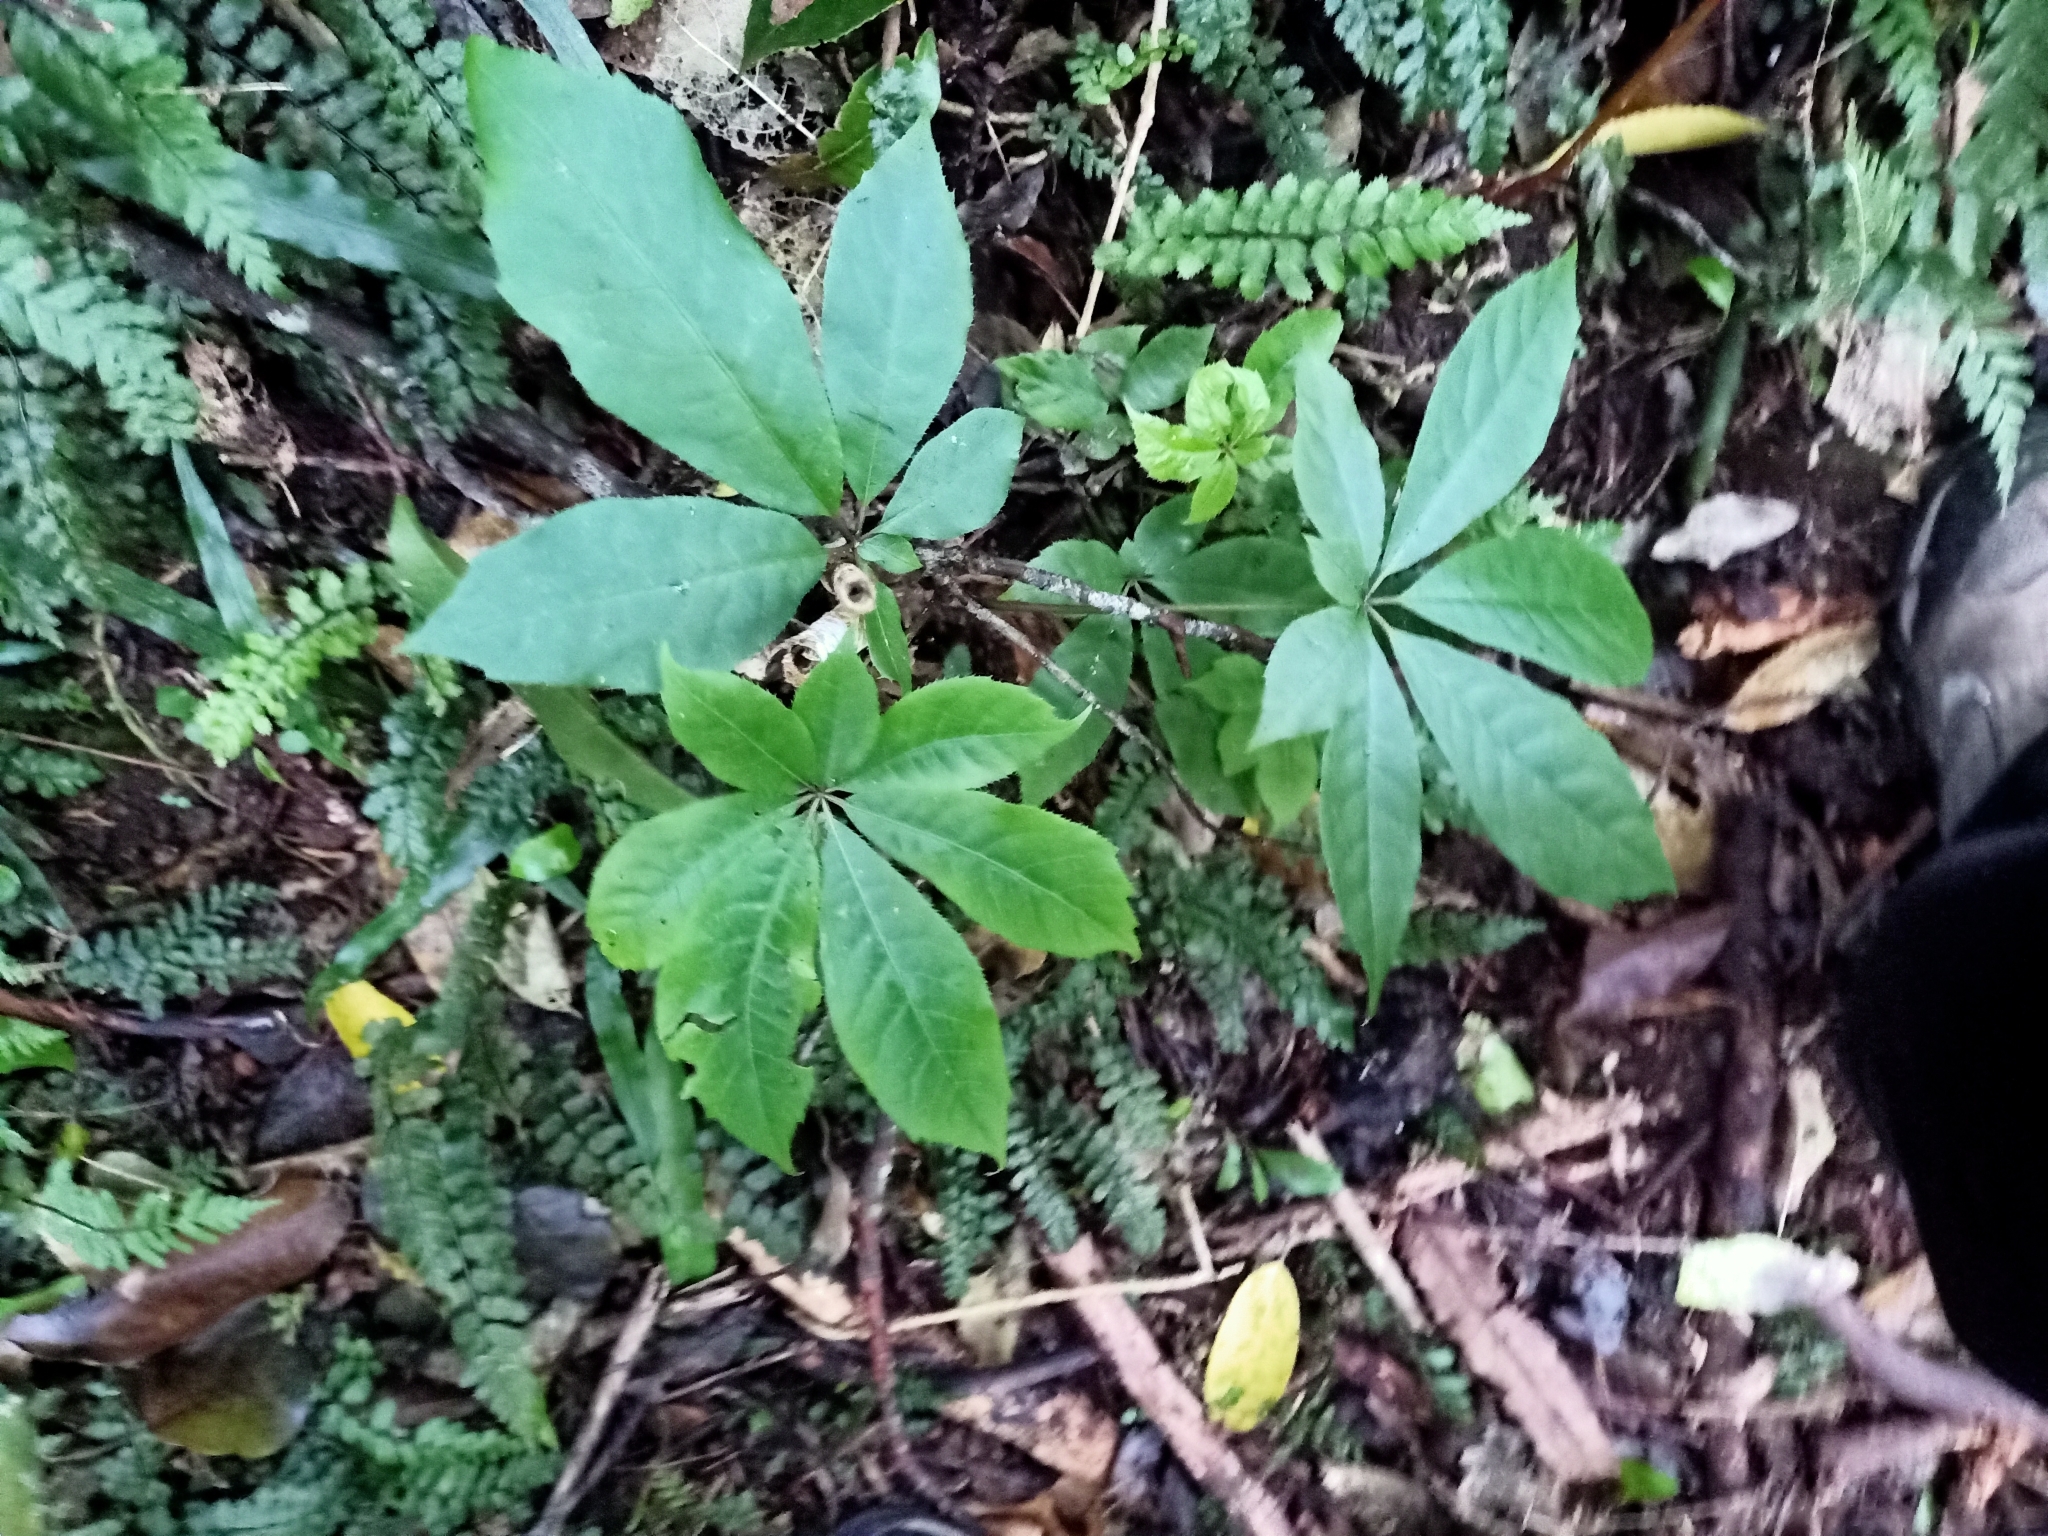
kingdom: Plantae
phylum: Tracheophyta
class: Magnoliopsida
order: Apiales
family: Araliaceae
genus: Schefflera
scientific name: Schefflera digitata
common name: Pate
